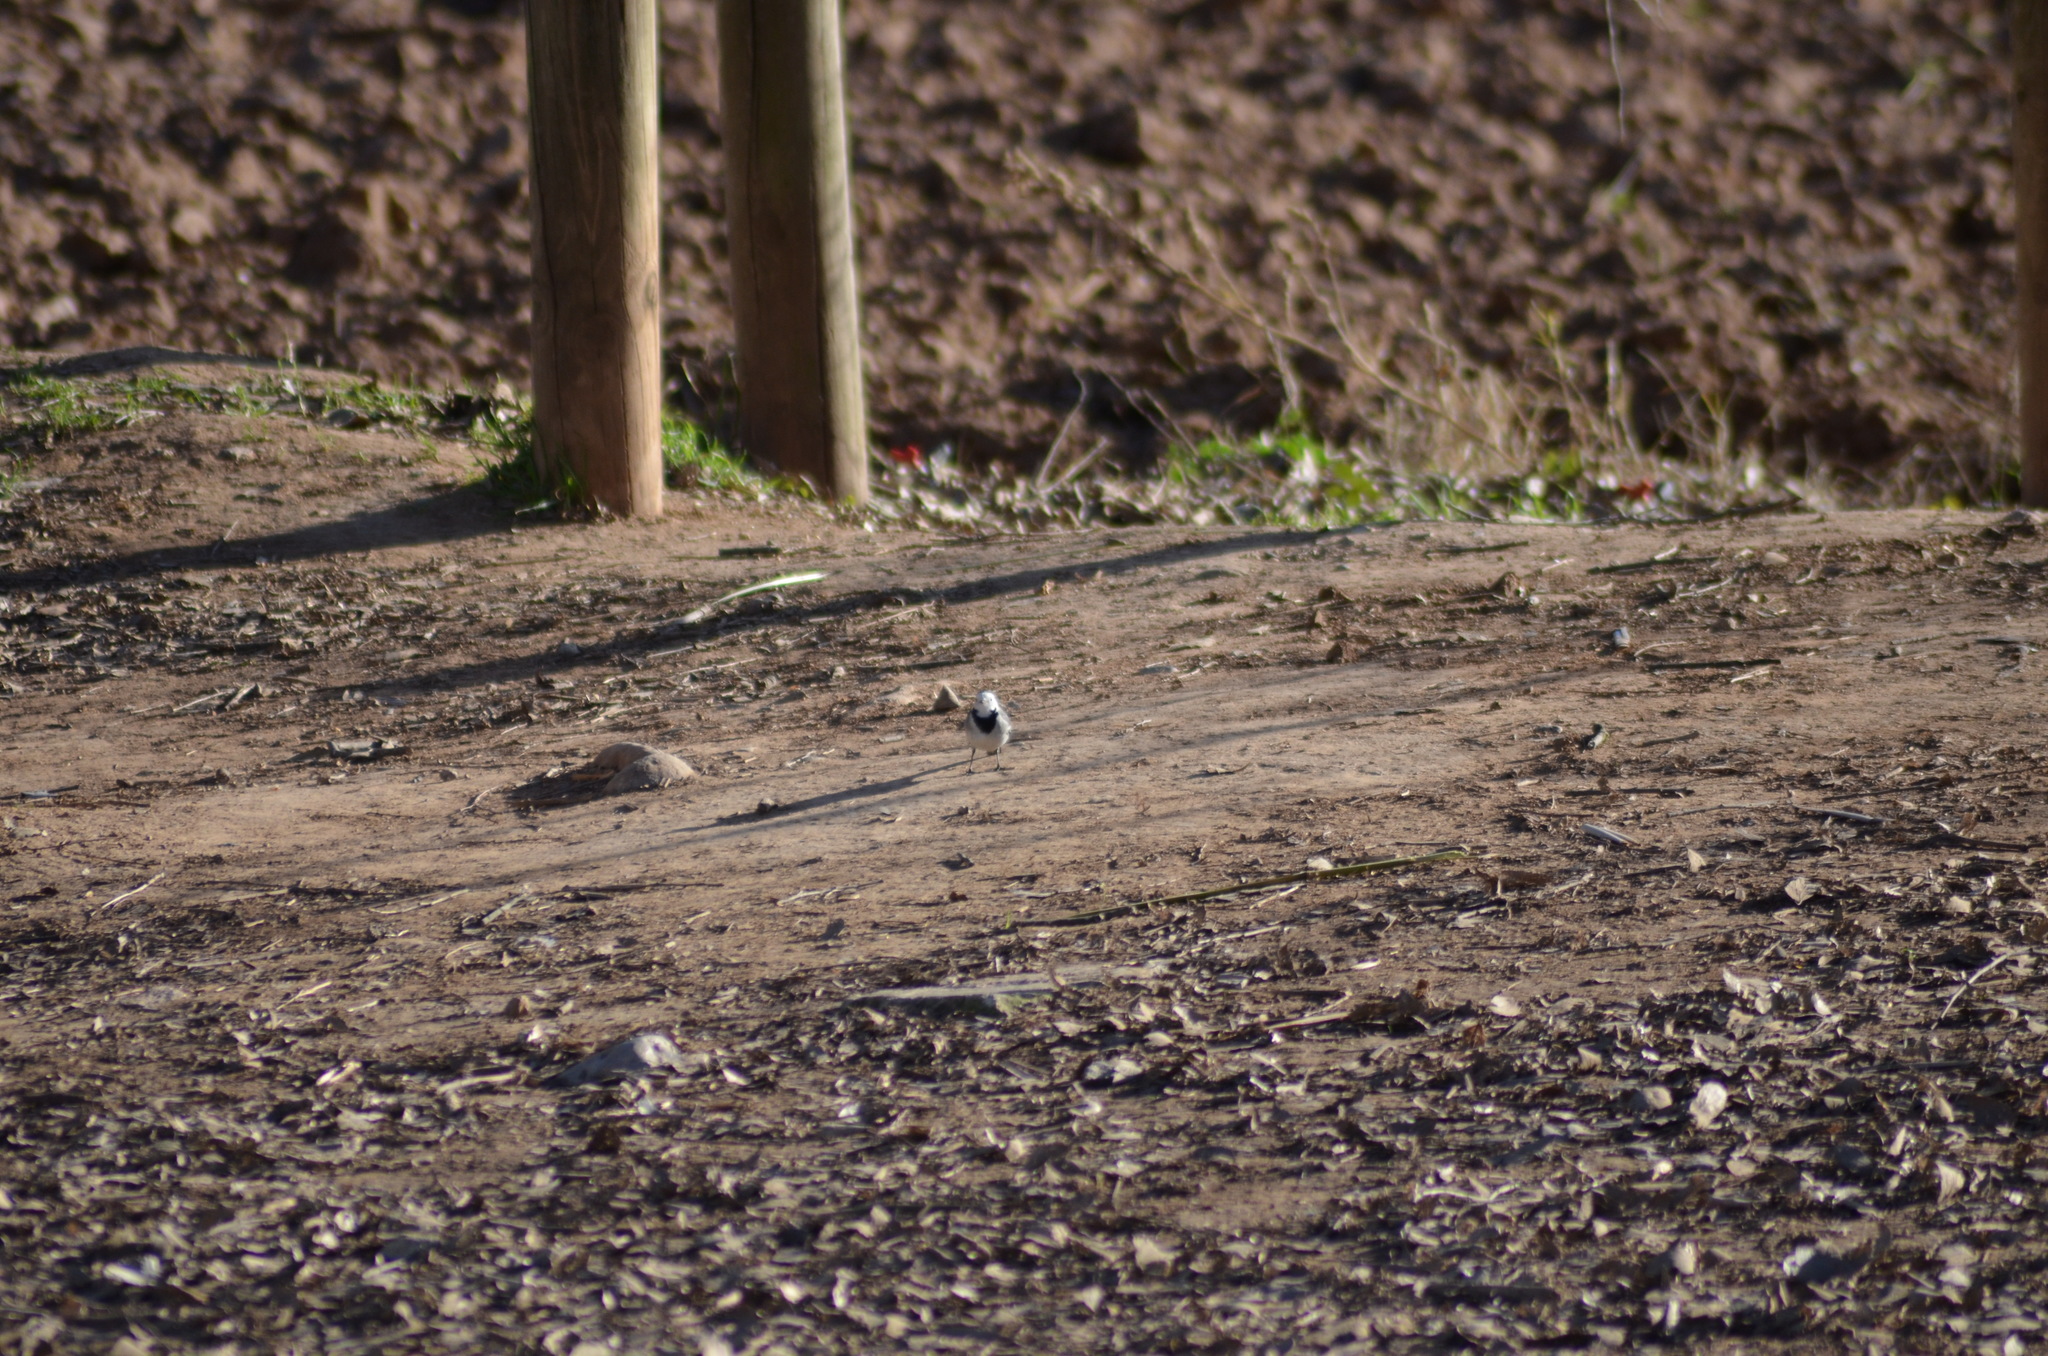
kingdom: Animalia
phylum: Chordata
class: Aves
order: Passeriformes
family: Motacillidae
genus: Motacilla
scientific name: Motacilla alba
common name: White wagtail
